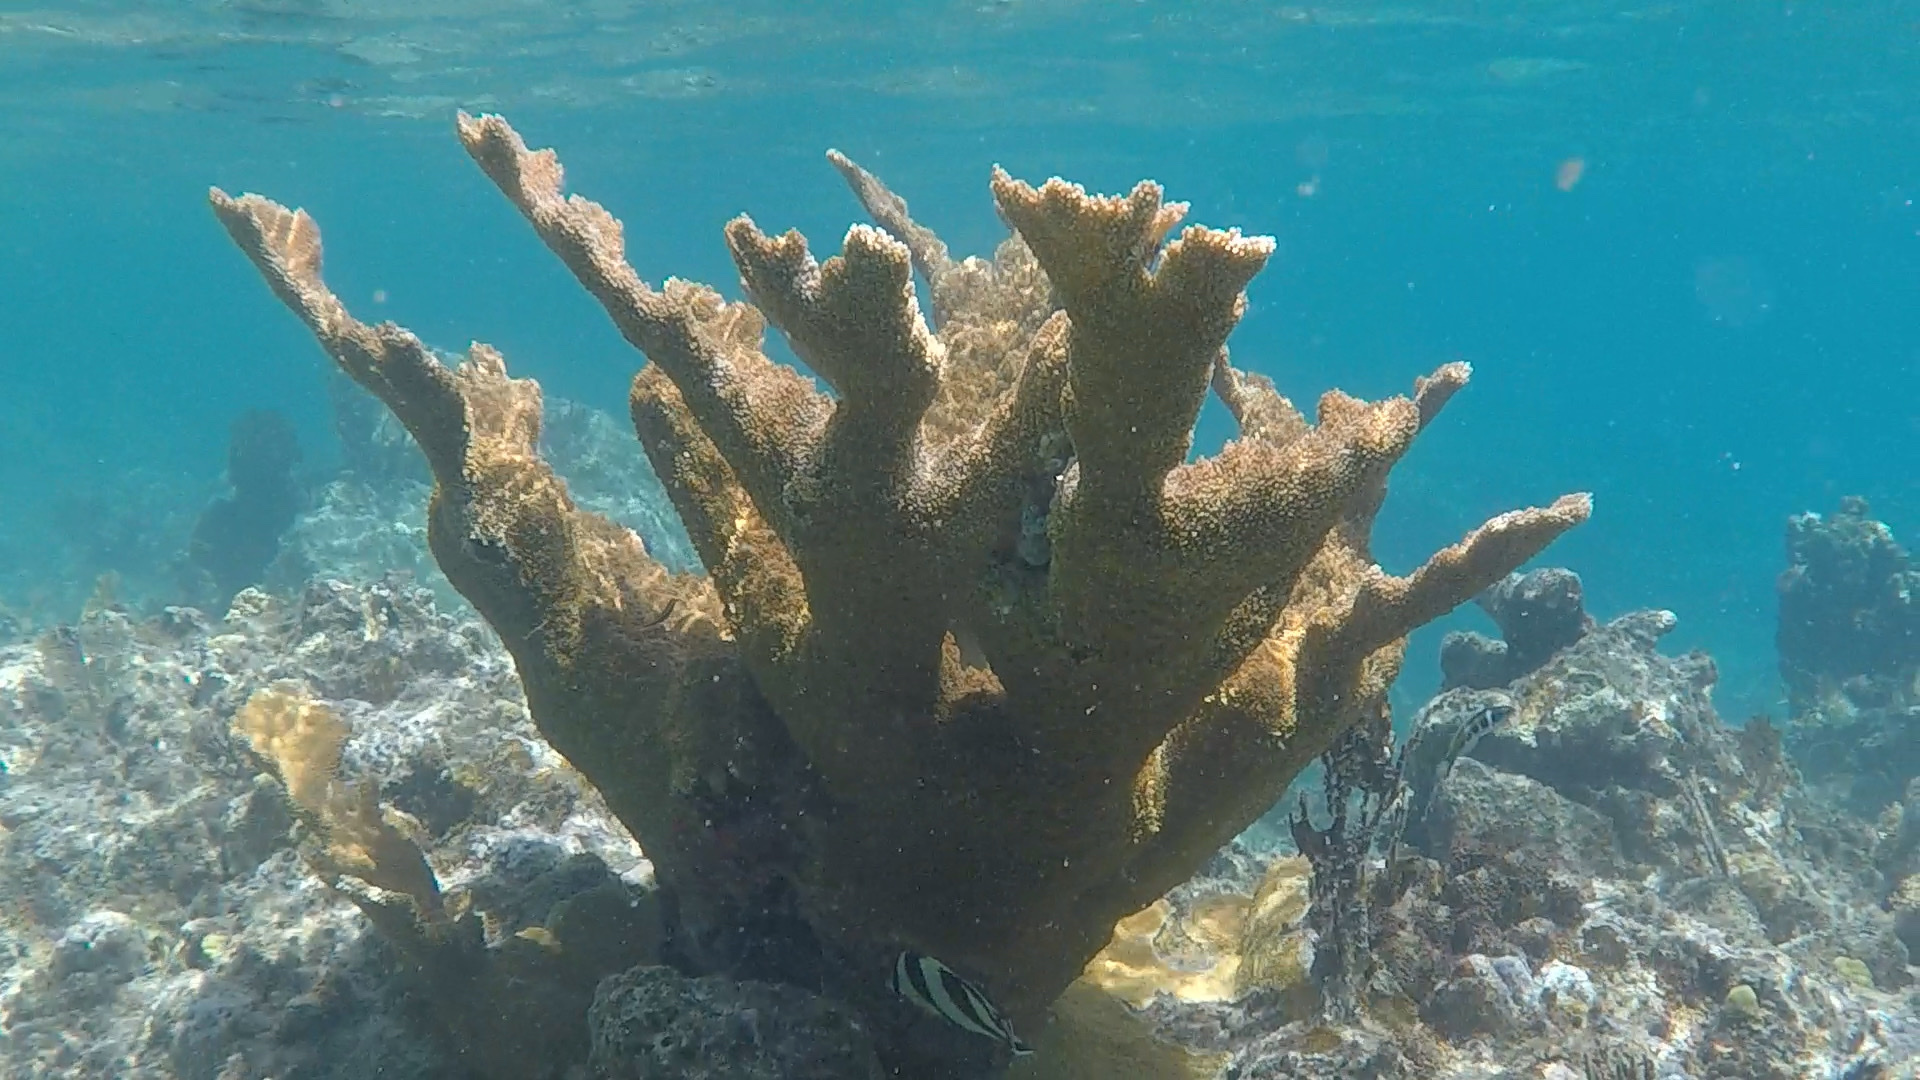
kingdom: Animalia
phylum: Cnidaria
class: Anthozoa
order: Scleractinia
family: Acroporidae
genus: Acropora
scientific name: Acropora palmata
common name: Elkhorn coral
